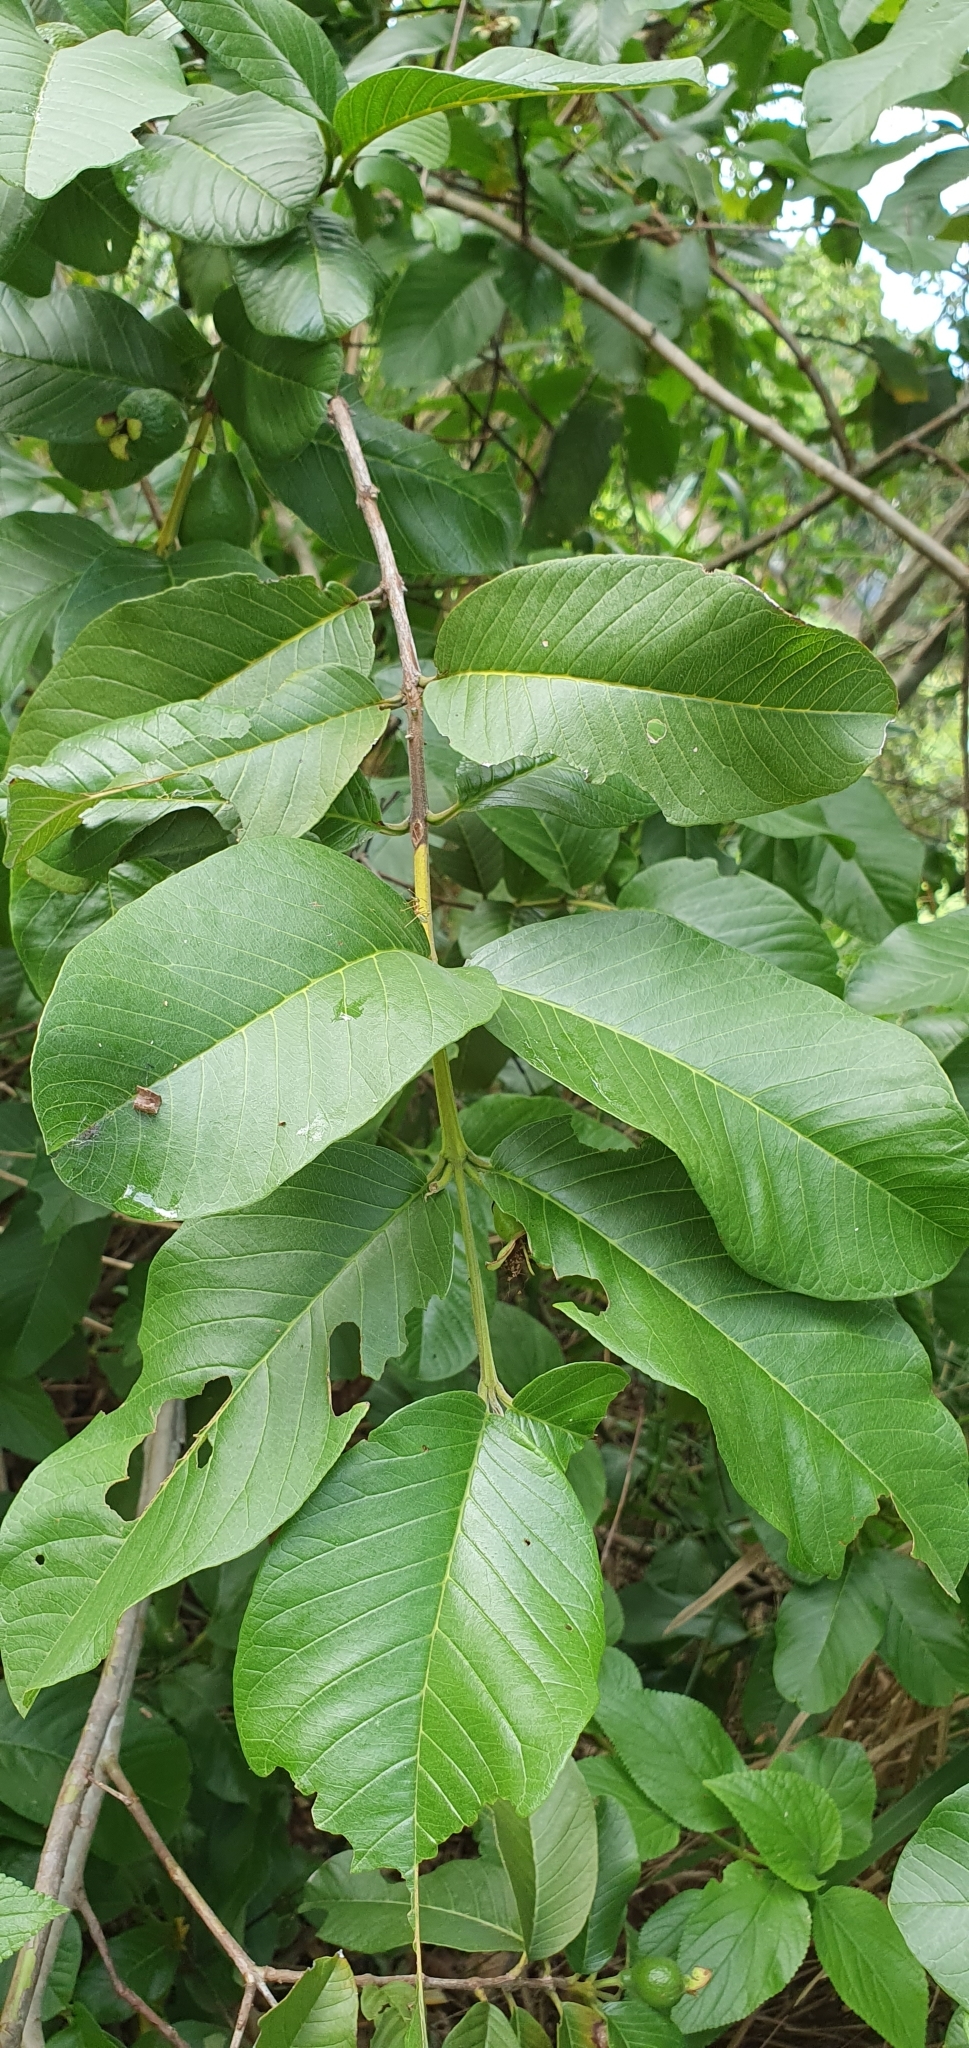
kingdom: Plantae
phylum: Tracheophyta
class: Magnoliopsida
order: Myrtales
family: Myrtaceae
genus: Psidium
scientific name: Psidium guajava
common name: Guava
